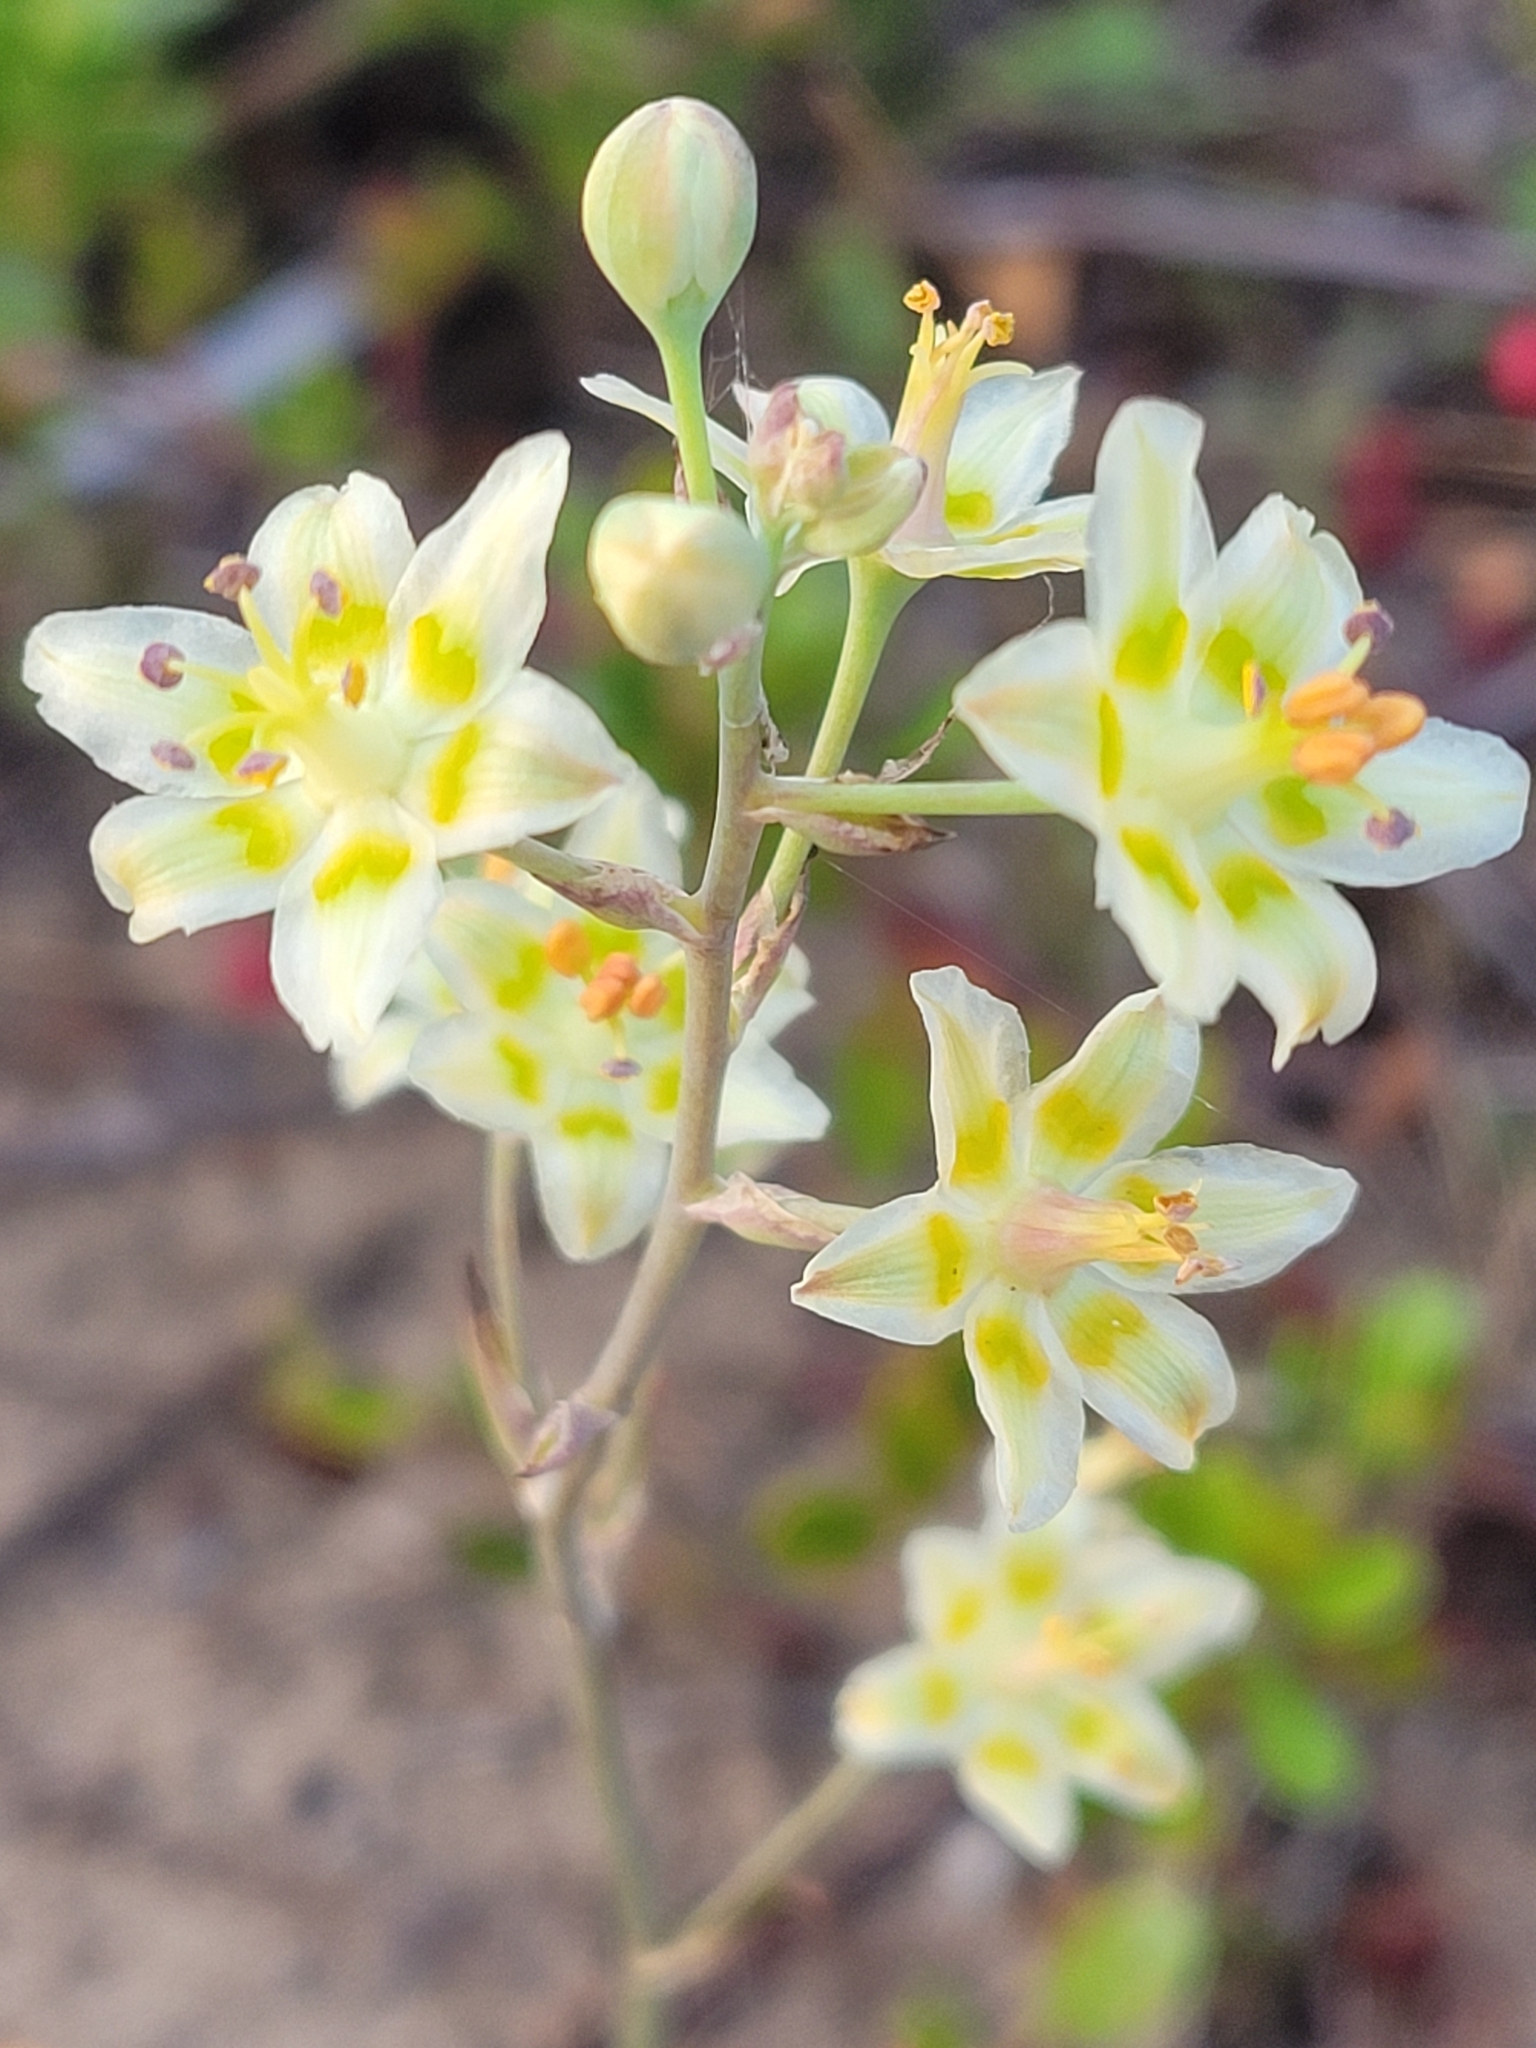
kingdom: Plantae
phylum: Tracheophyta
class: Liliopsida
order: Liliales
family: Melanthiaceae
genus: Anticlea
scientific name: Anticlea elegans
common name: Mountain death camas
